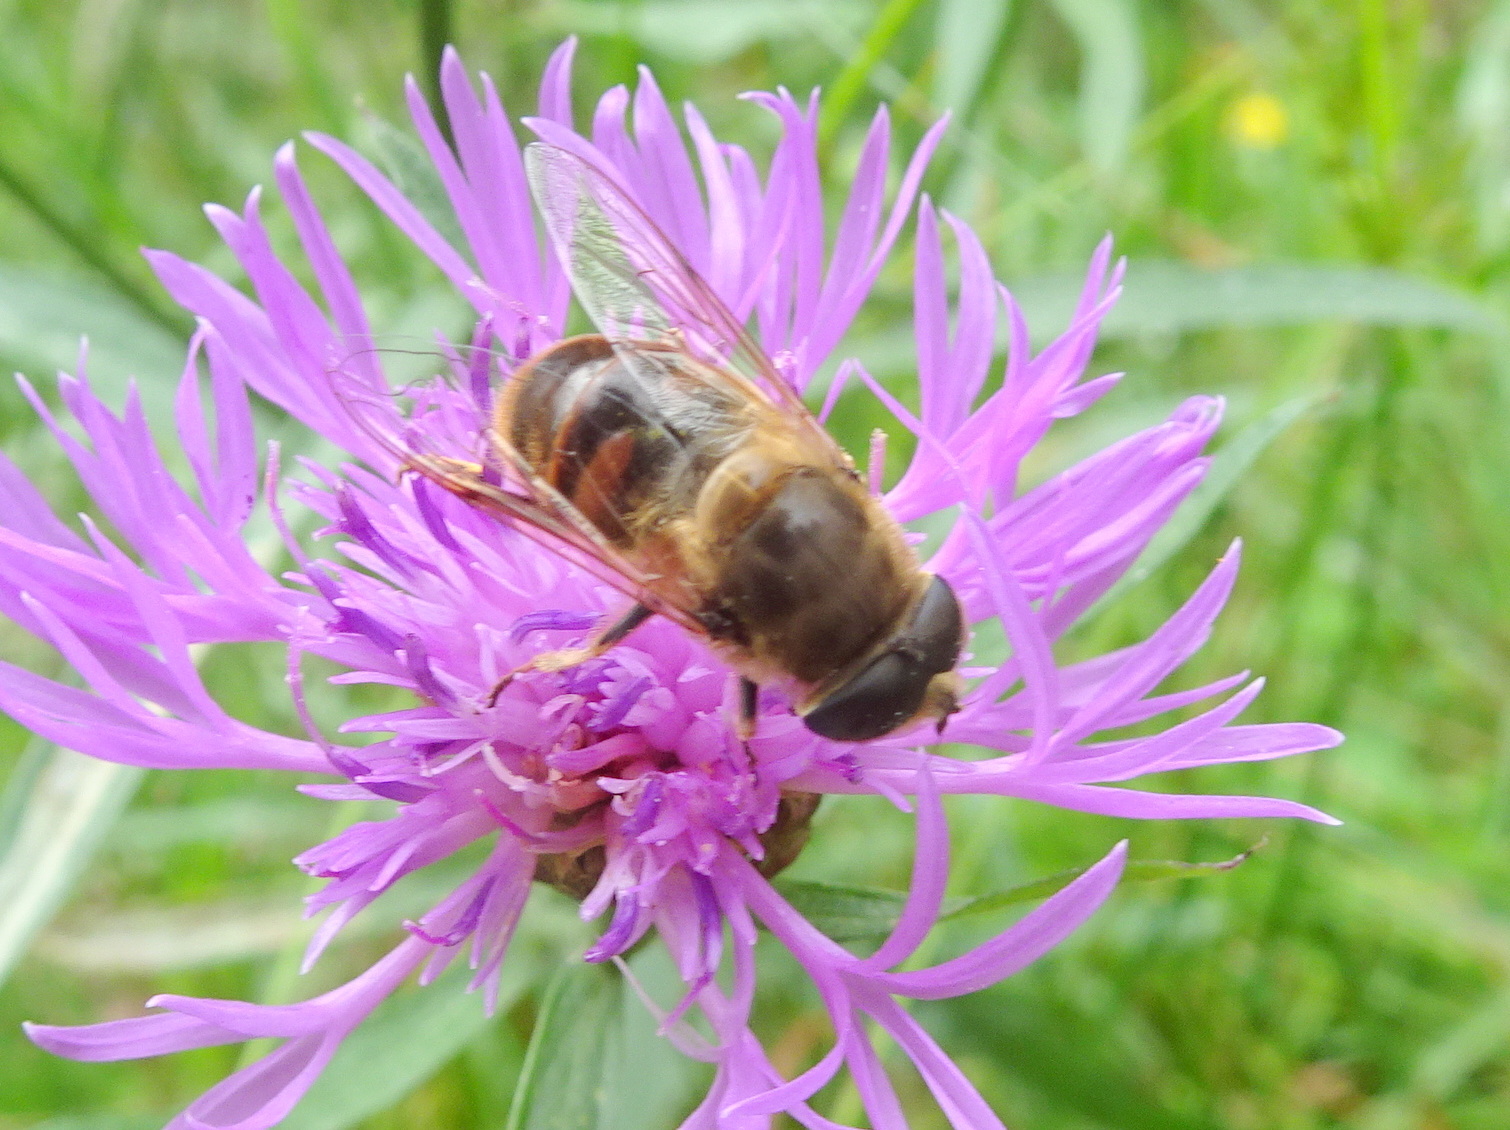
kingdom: Animalia
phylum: Arthropoda
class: Insecta
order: Diptera
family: Syrphidae
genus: Eristalis
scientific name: Eristalis tenax
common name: Drone fly
